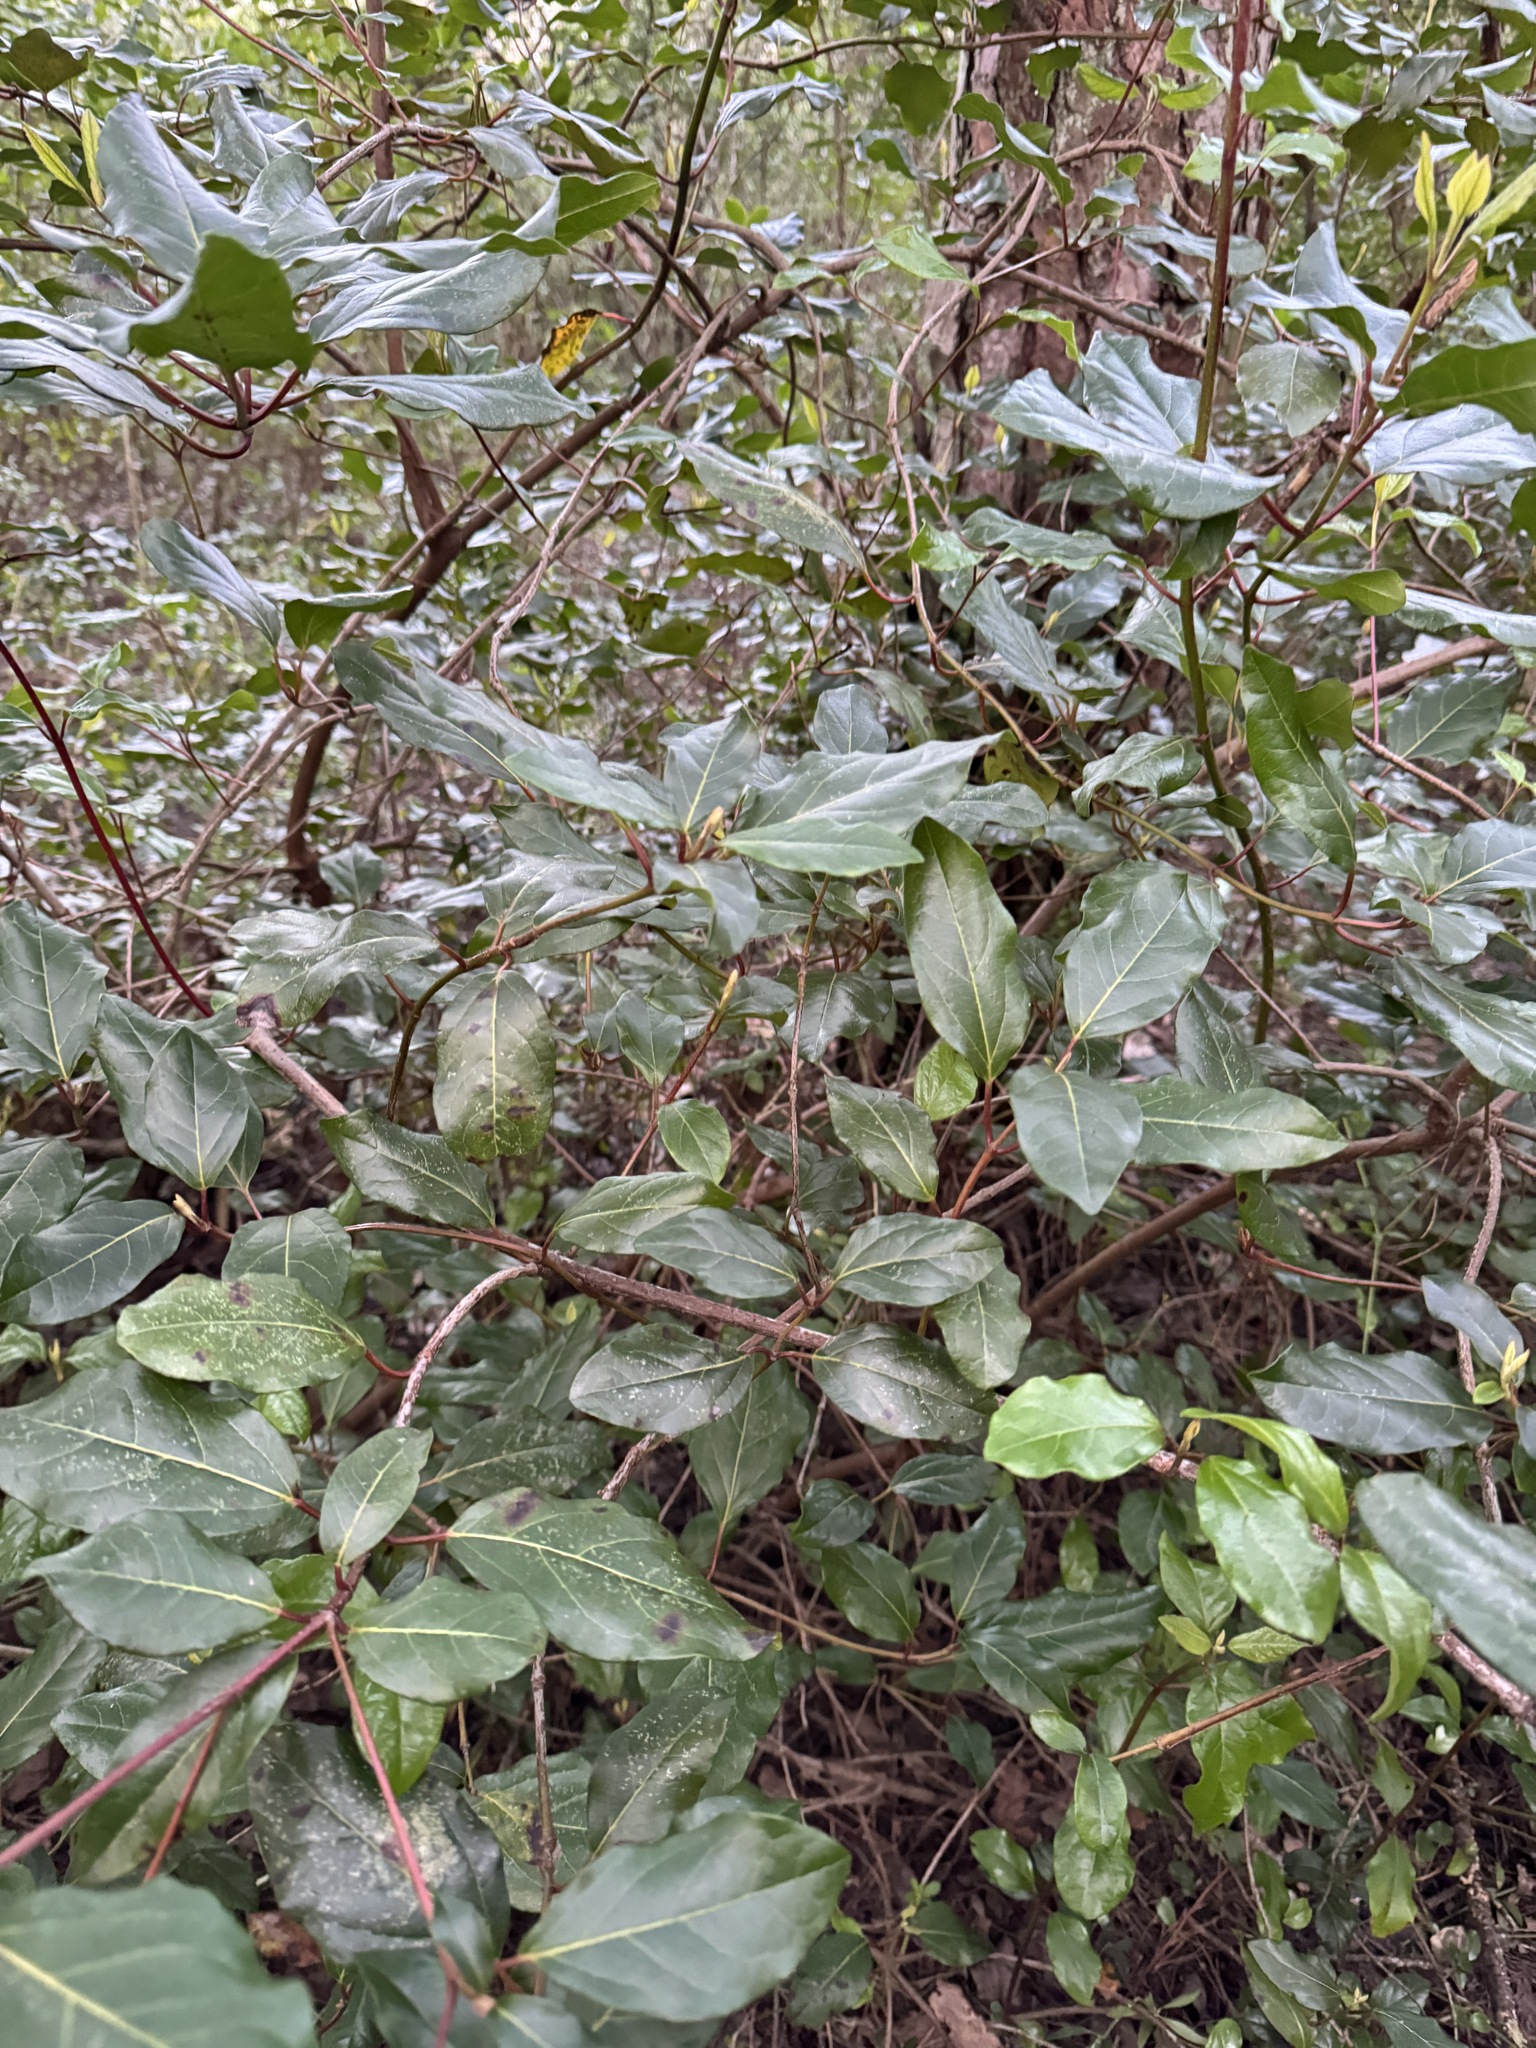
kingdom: Plantae
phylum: Tracheophyta
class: Magnoliopsida
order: Dipsacales
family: Viburnaceae
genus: Viburnum
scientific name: Viburnum tinus
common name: Laurustinus
